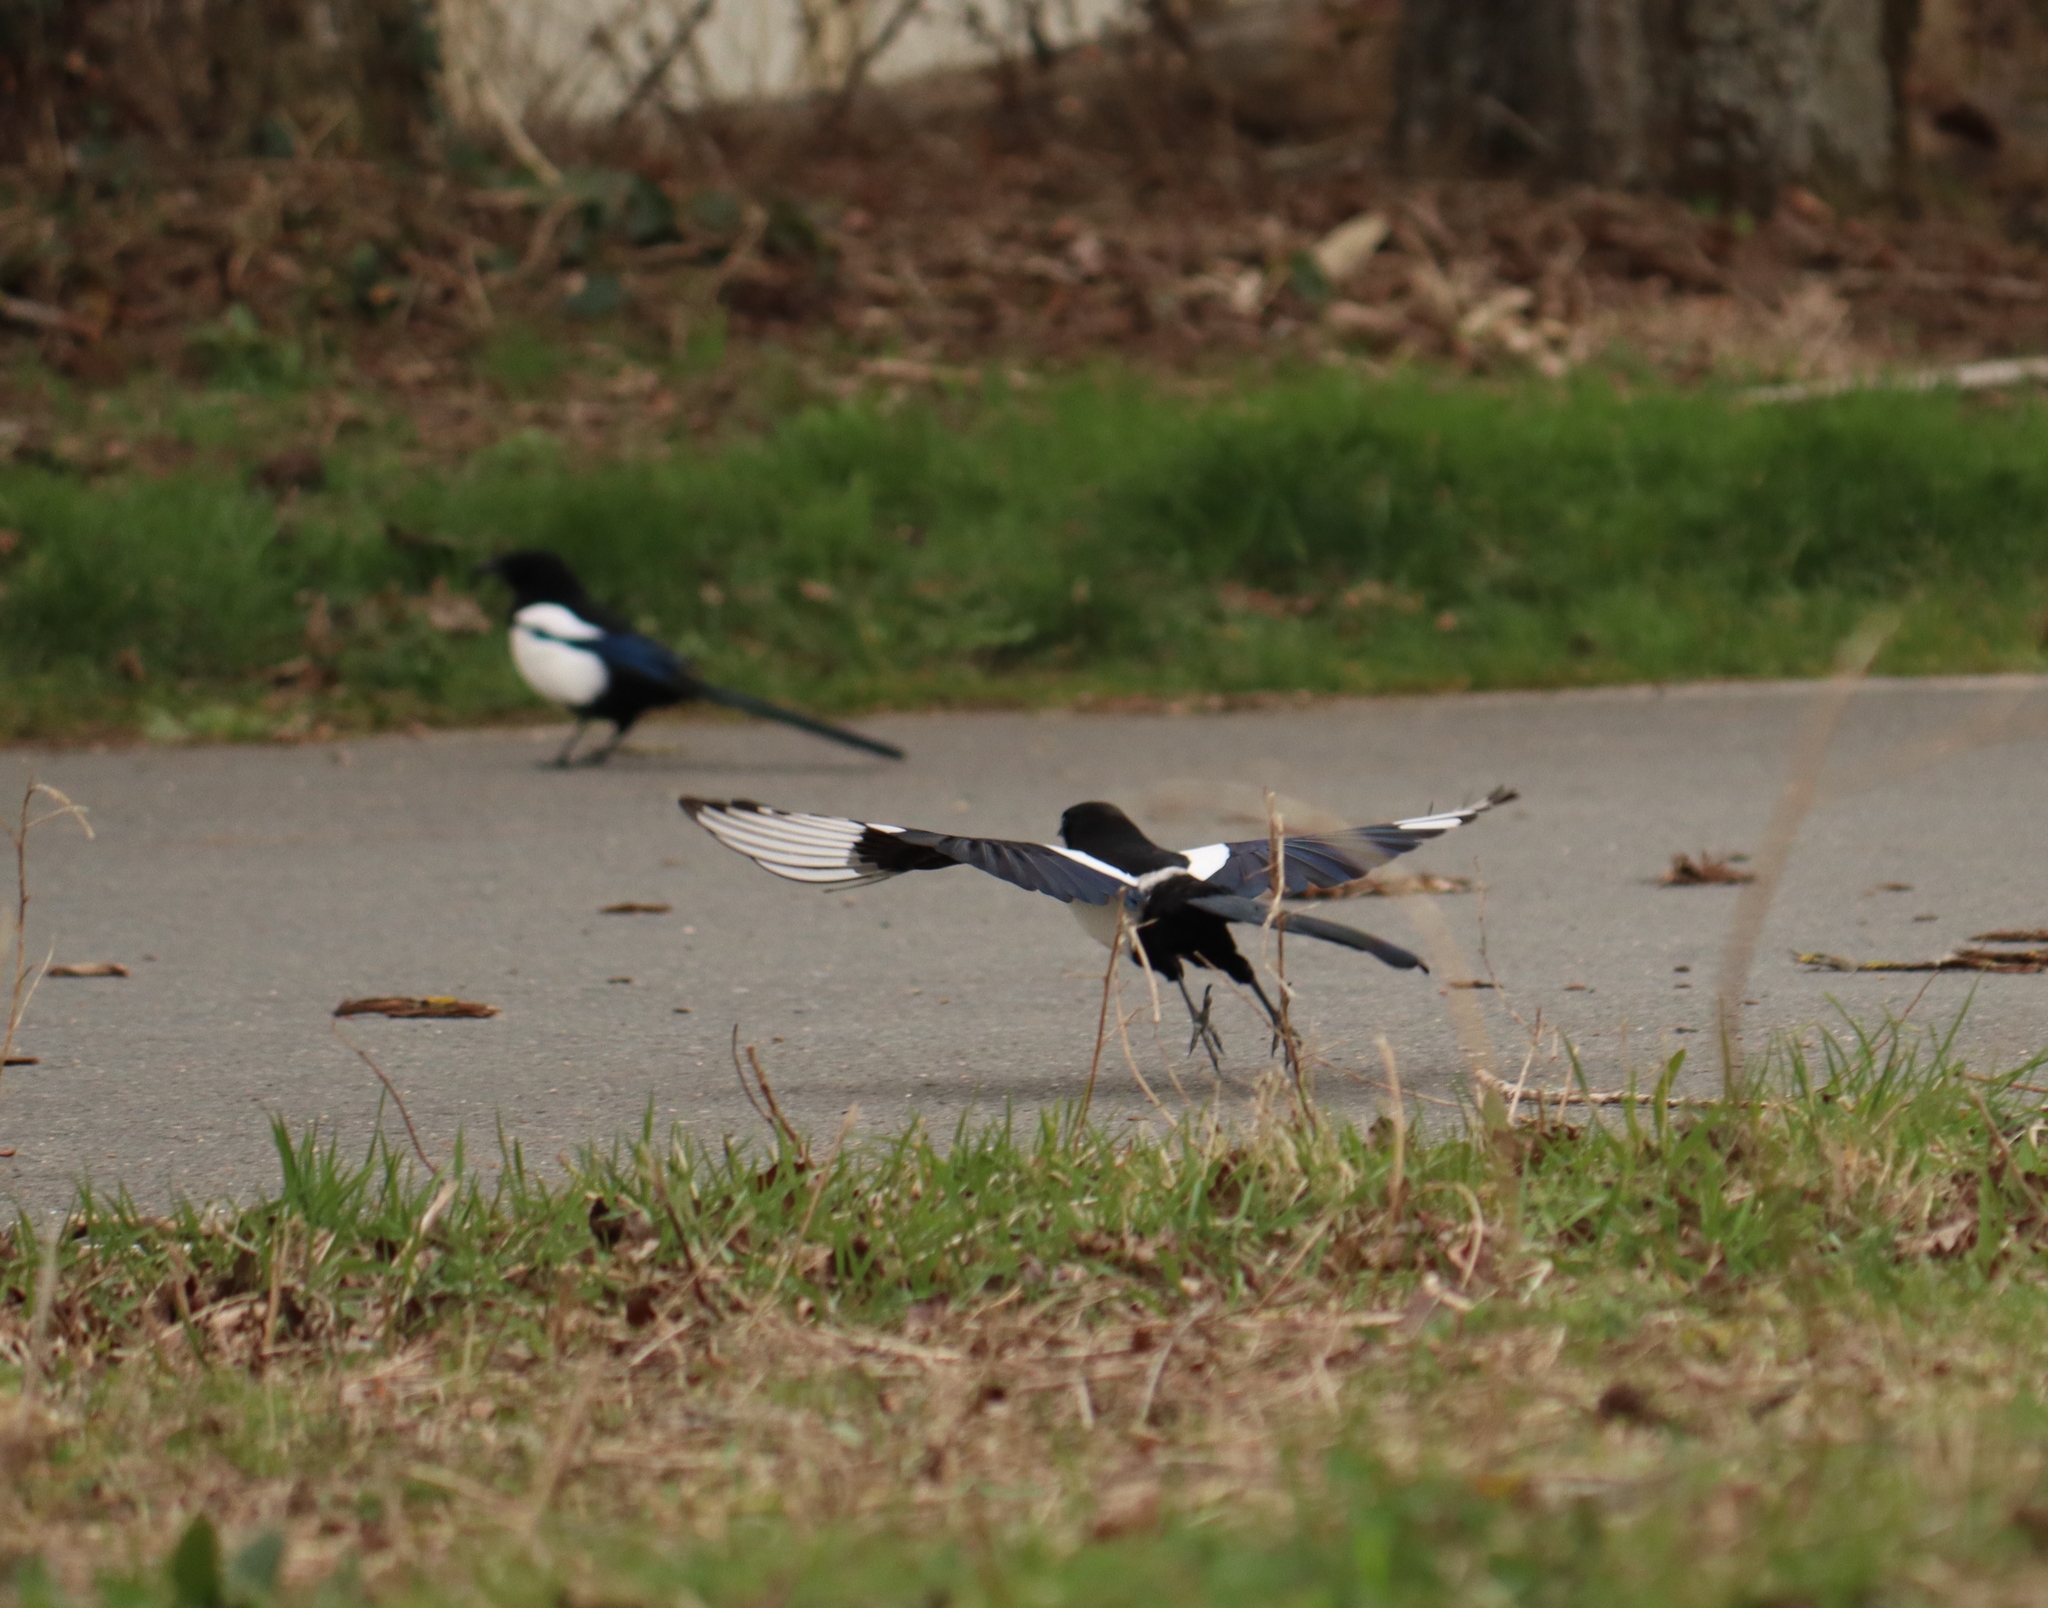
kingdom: Animalia
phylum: Chordata
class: Aves
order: Passeriformes
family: Corvidae
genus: Pica
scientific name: Pica pica
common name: Eurasian magpie
